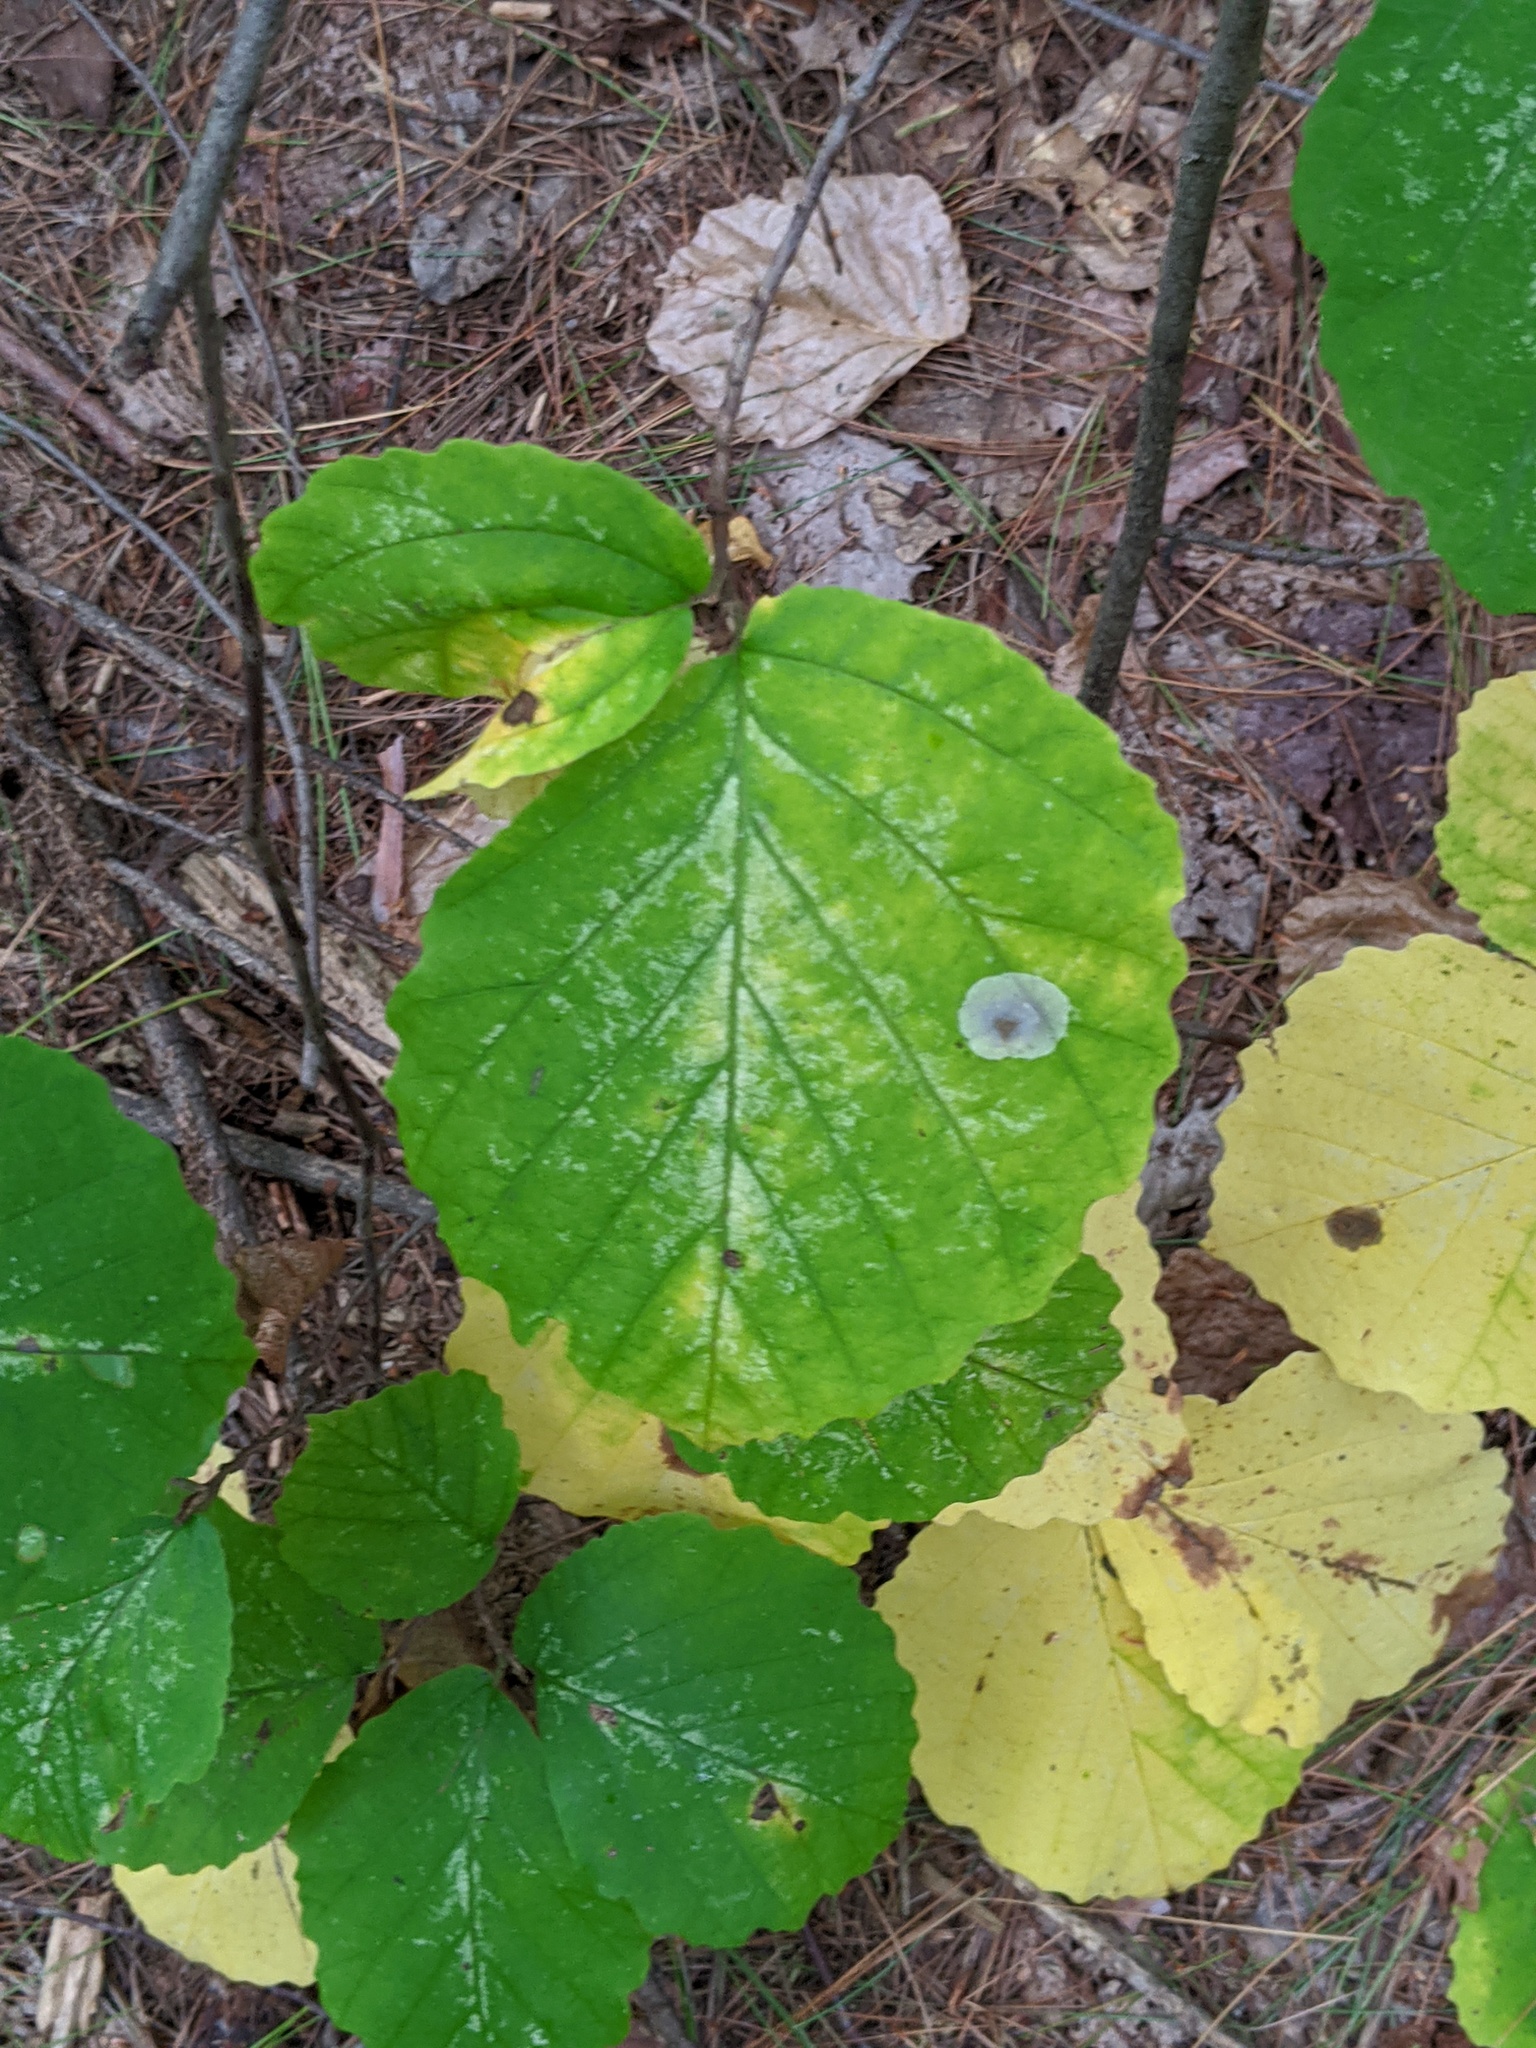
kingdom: Animalia
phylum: Arthropoda
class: Insecta
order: Lepidoptera
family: Gracillariidae
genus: Cameraria
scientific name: Cameraria hamameliella
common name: Witchhazel leafminer
